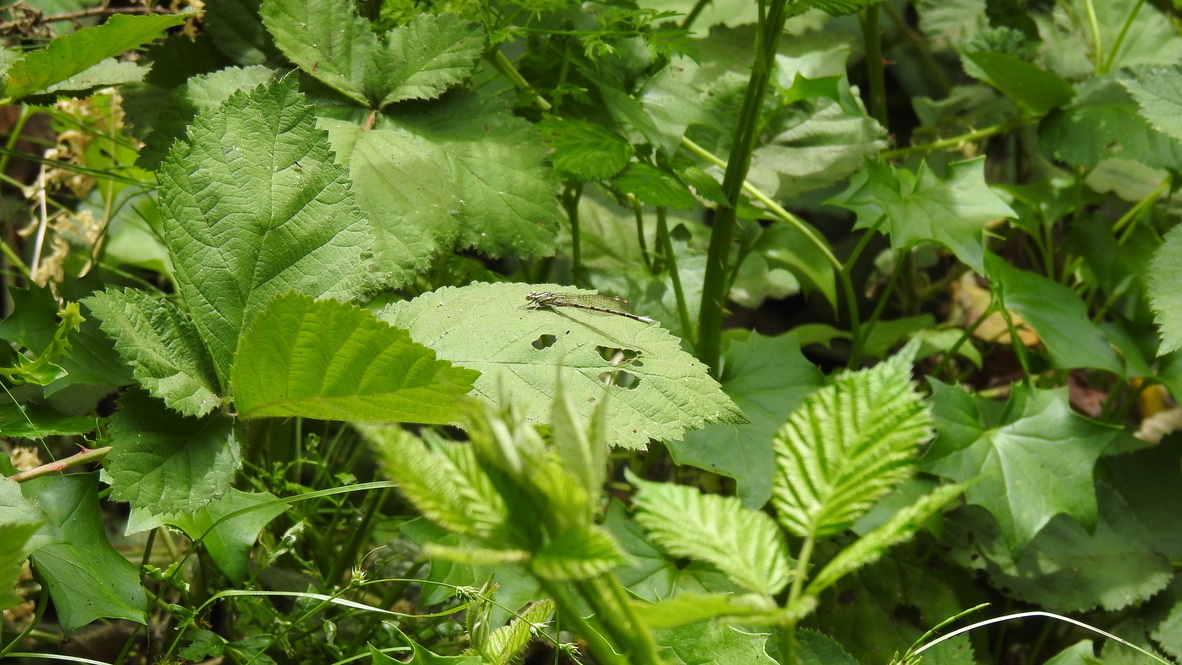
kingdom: Animalia
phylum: Arthropoda
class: Insecta
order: Odonata
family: Coenagrionidae
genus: Argia
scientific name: Argia vivida
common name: Vivid dancer
